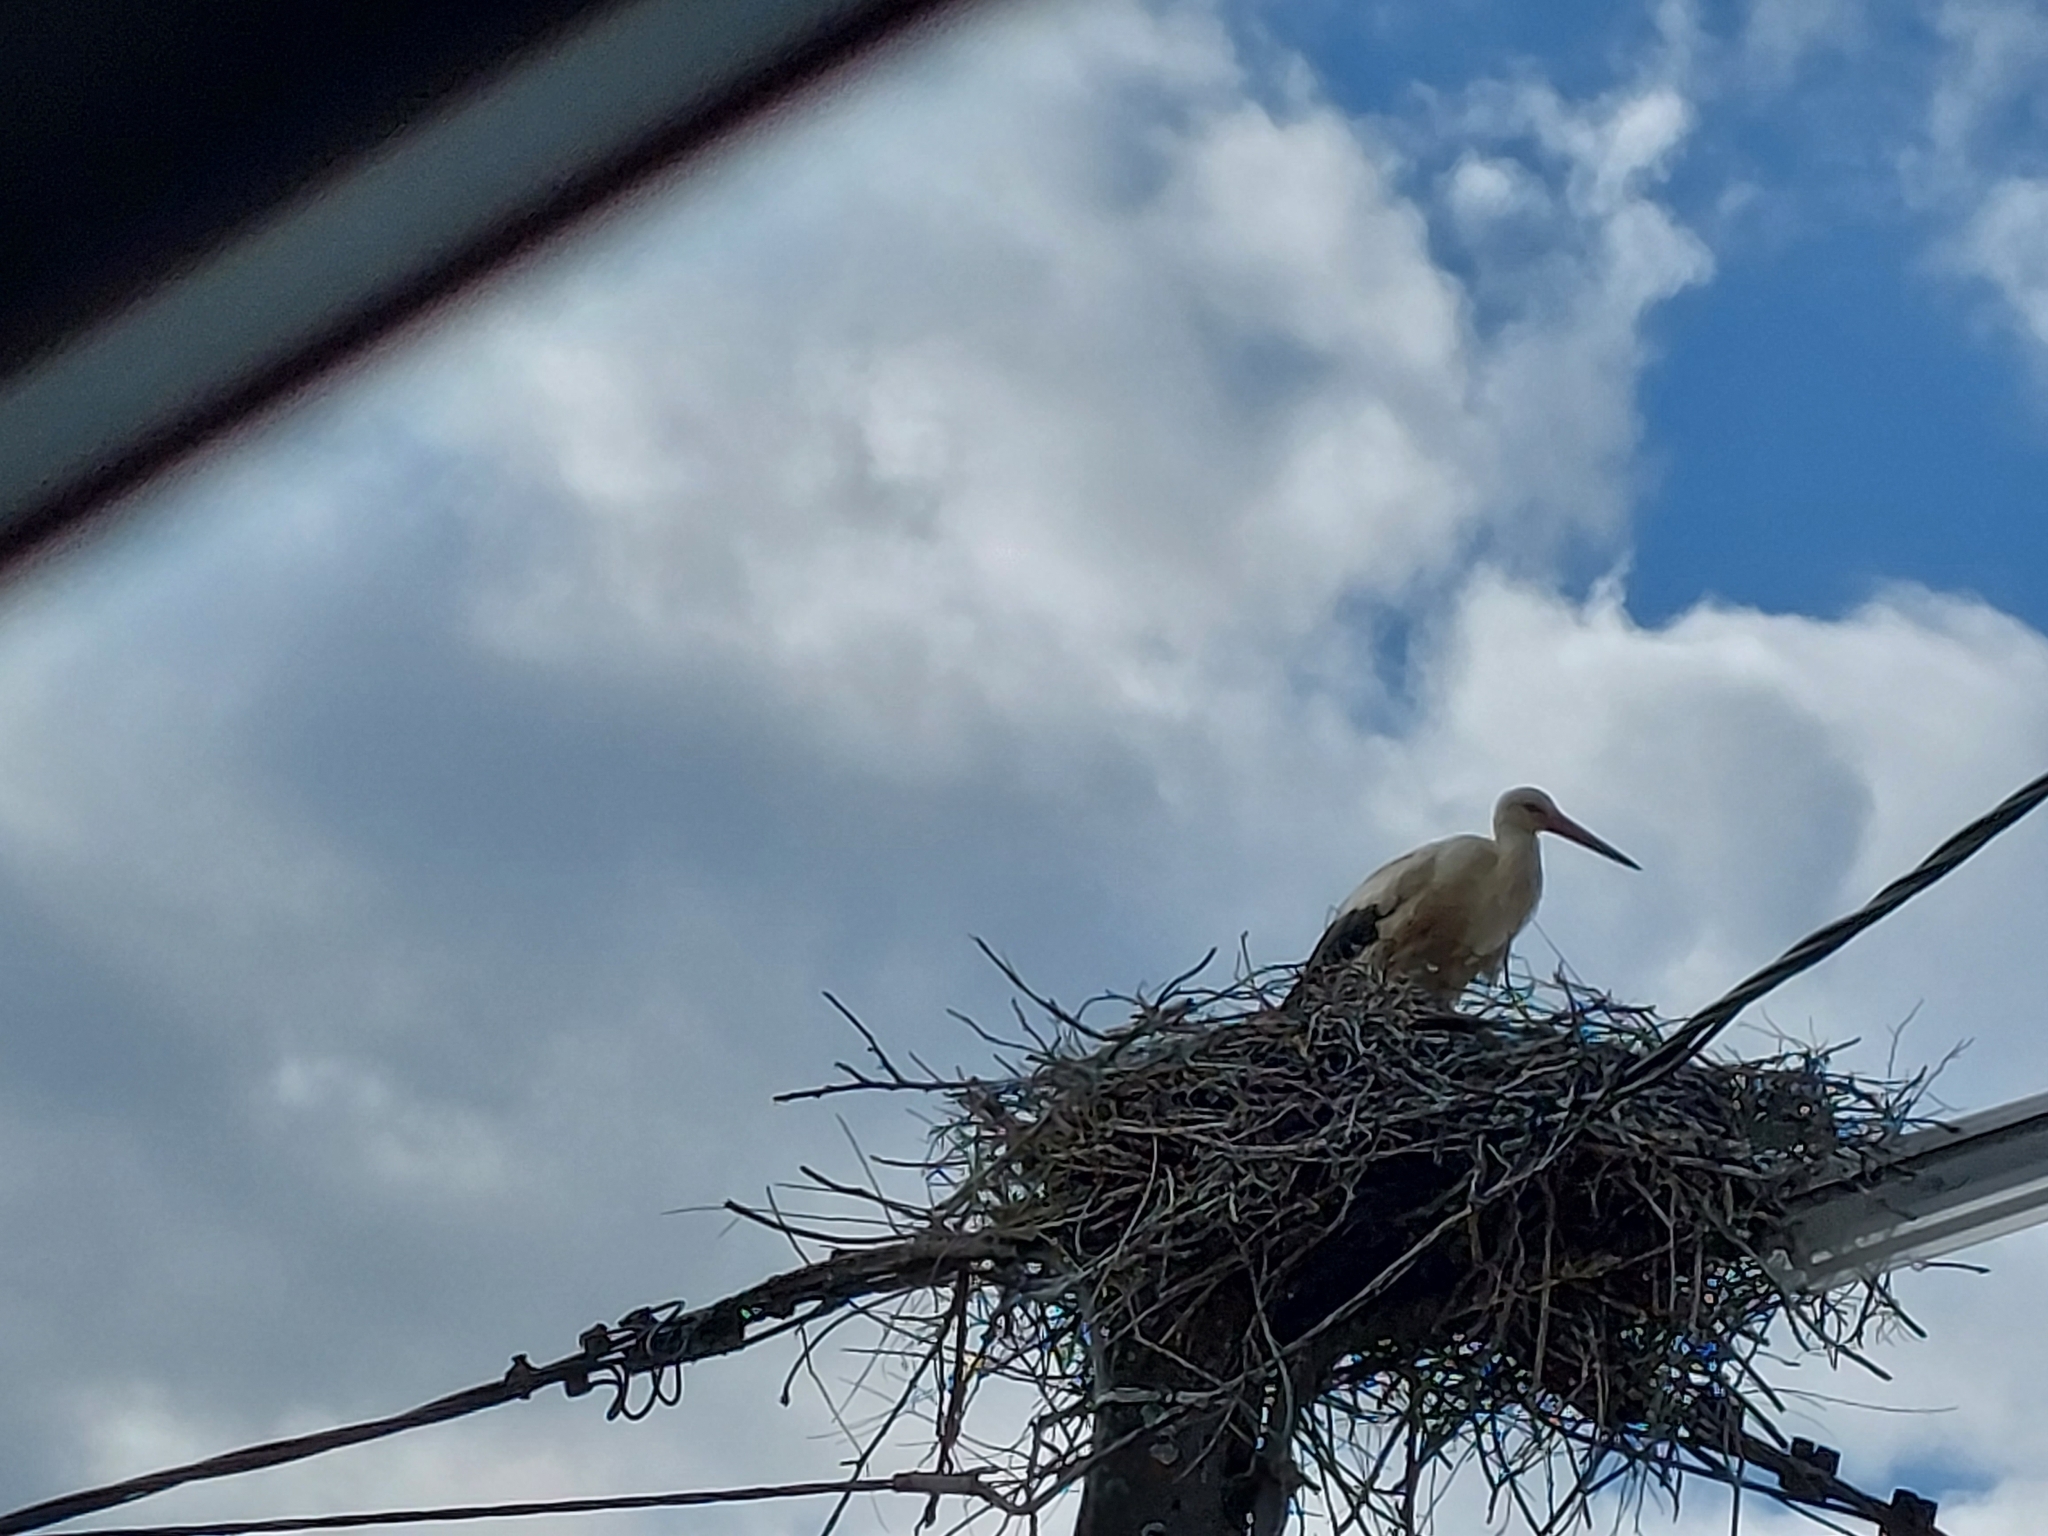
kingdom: Animalia
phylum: Chordata
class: Aves
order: Ciconiiformes
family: Ciconiidae
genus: Ciconia
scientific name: Ciconia ciconia
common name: White stork
